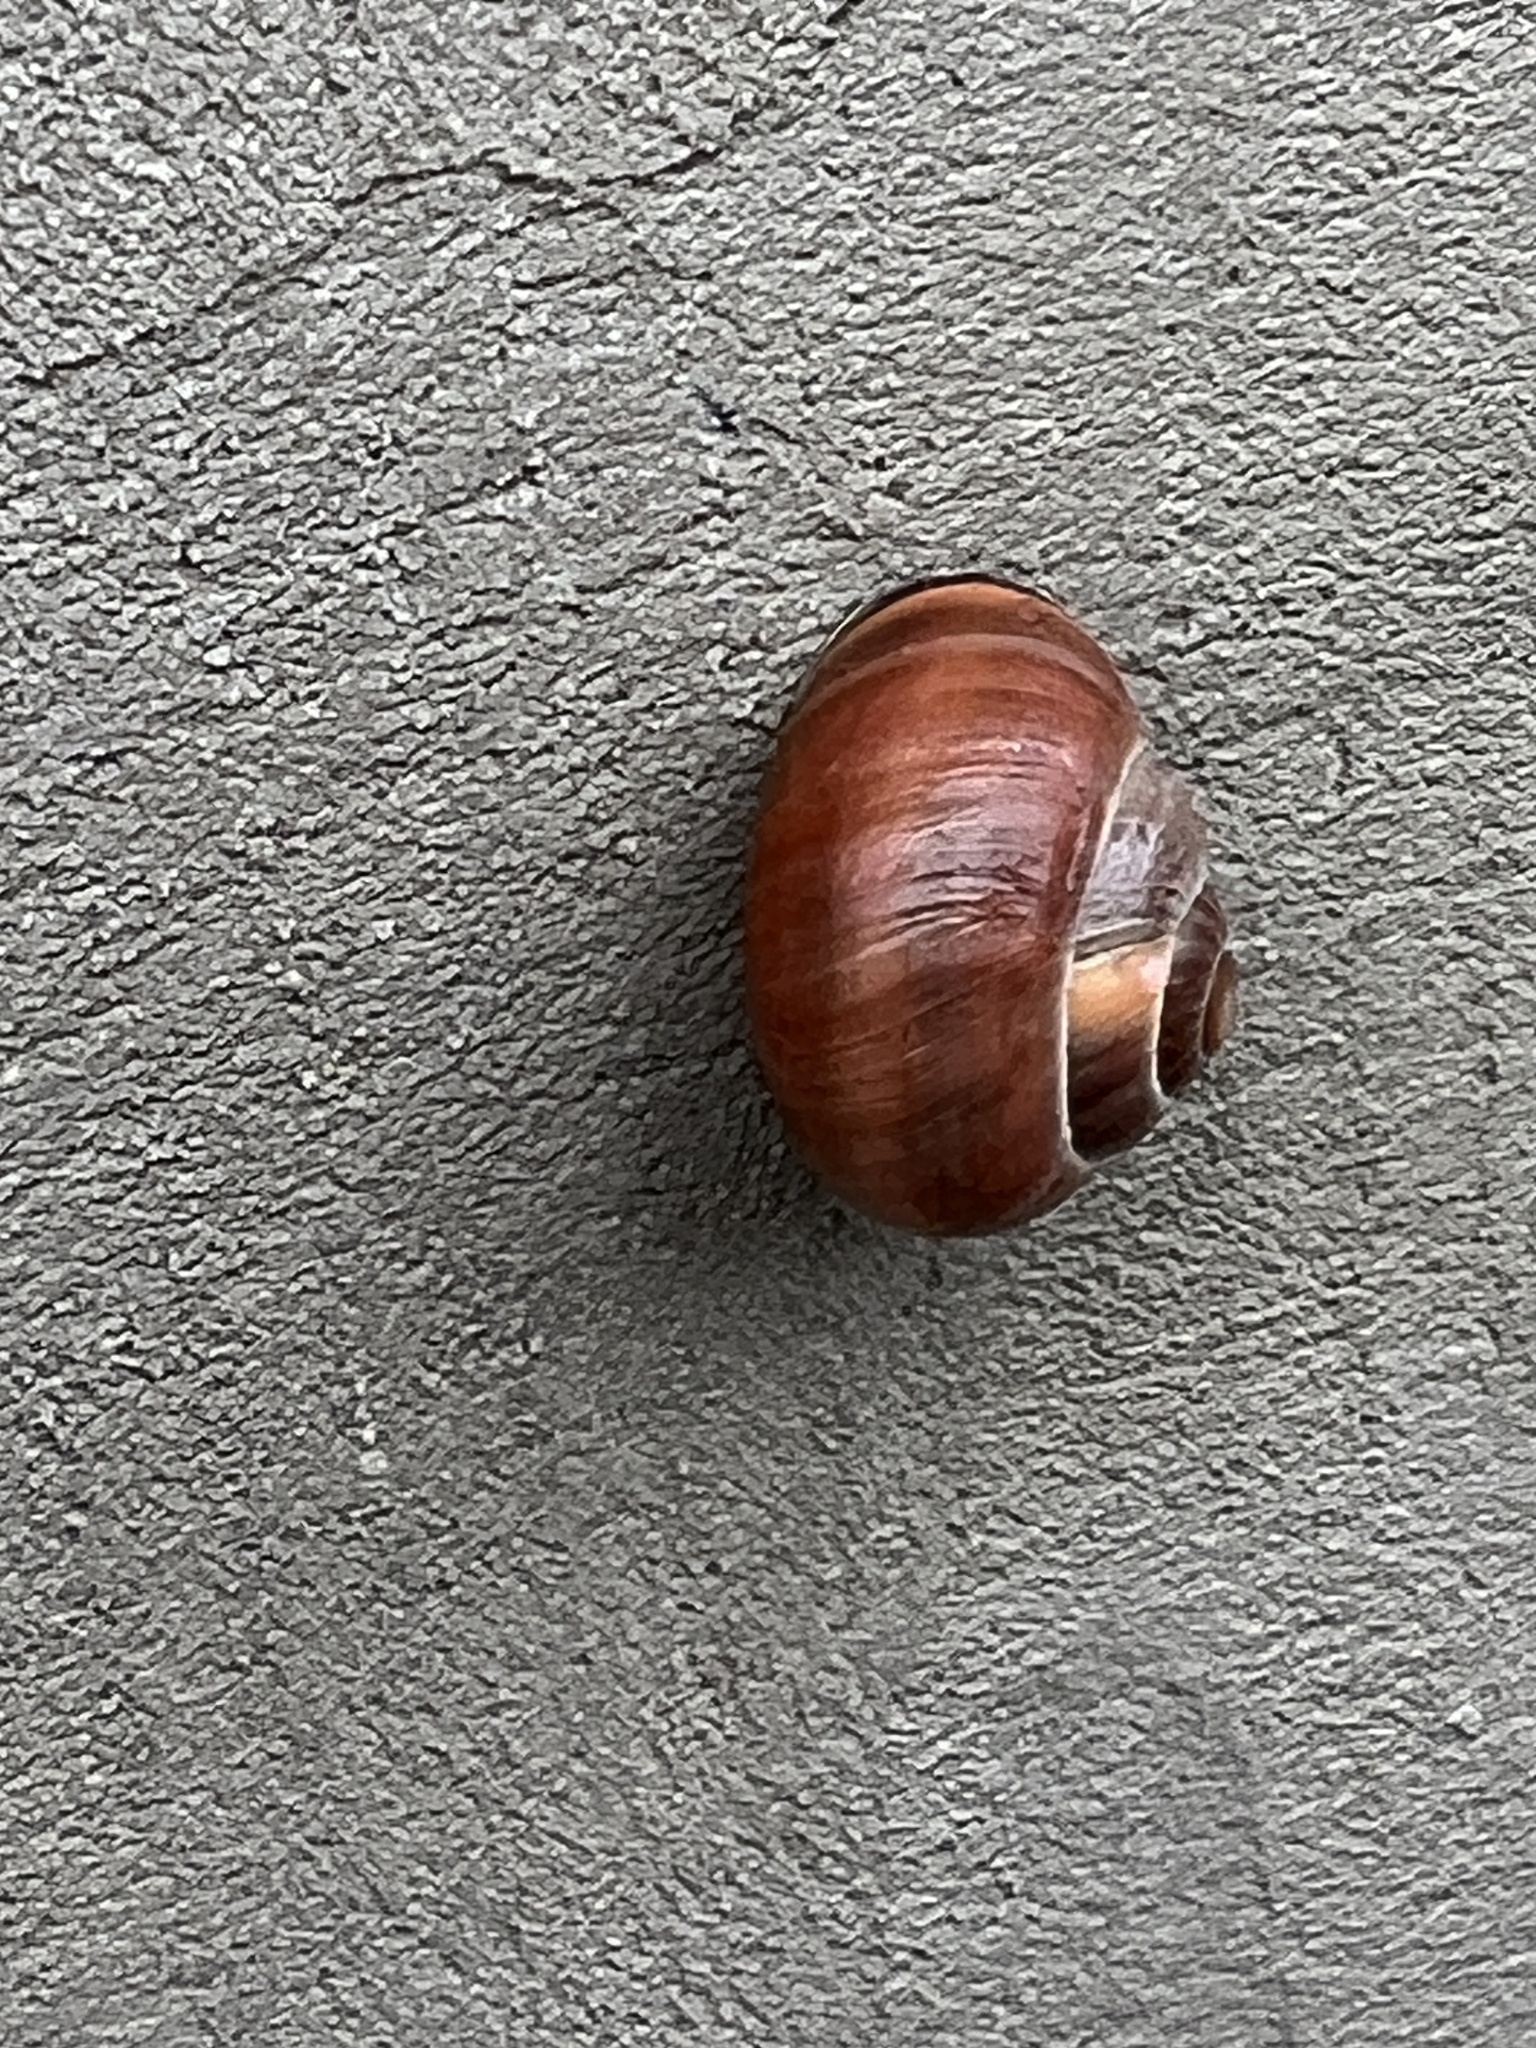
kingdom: Animalia
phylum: Mollusca
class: Gastropoda
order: Stylommatophora
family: Helicidae
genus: Cepaea
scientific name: Cepaea nemoralis
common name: Grovesnail
